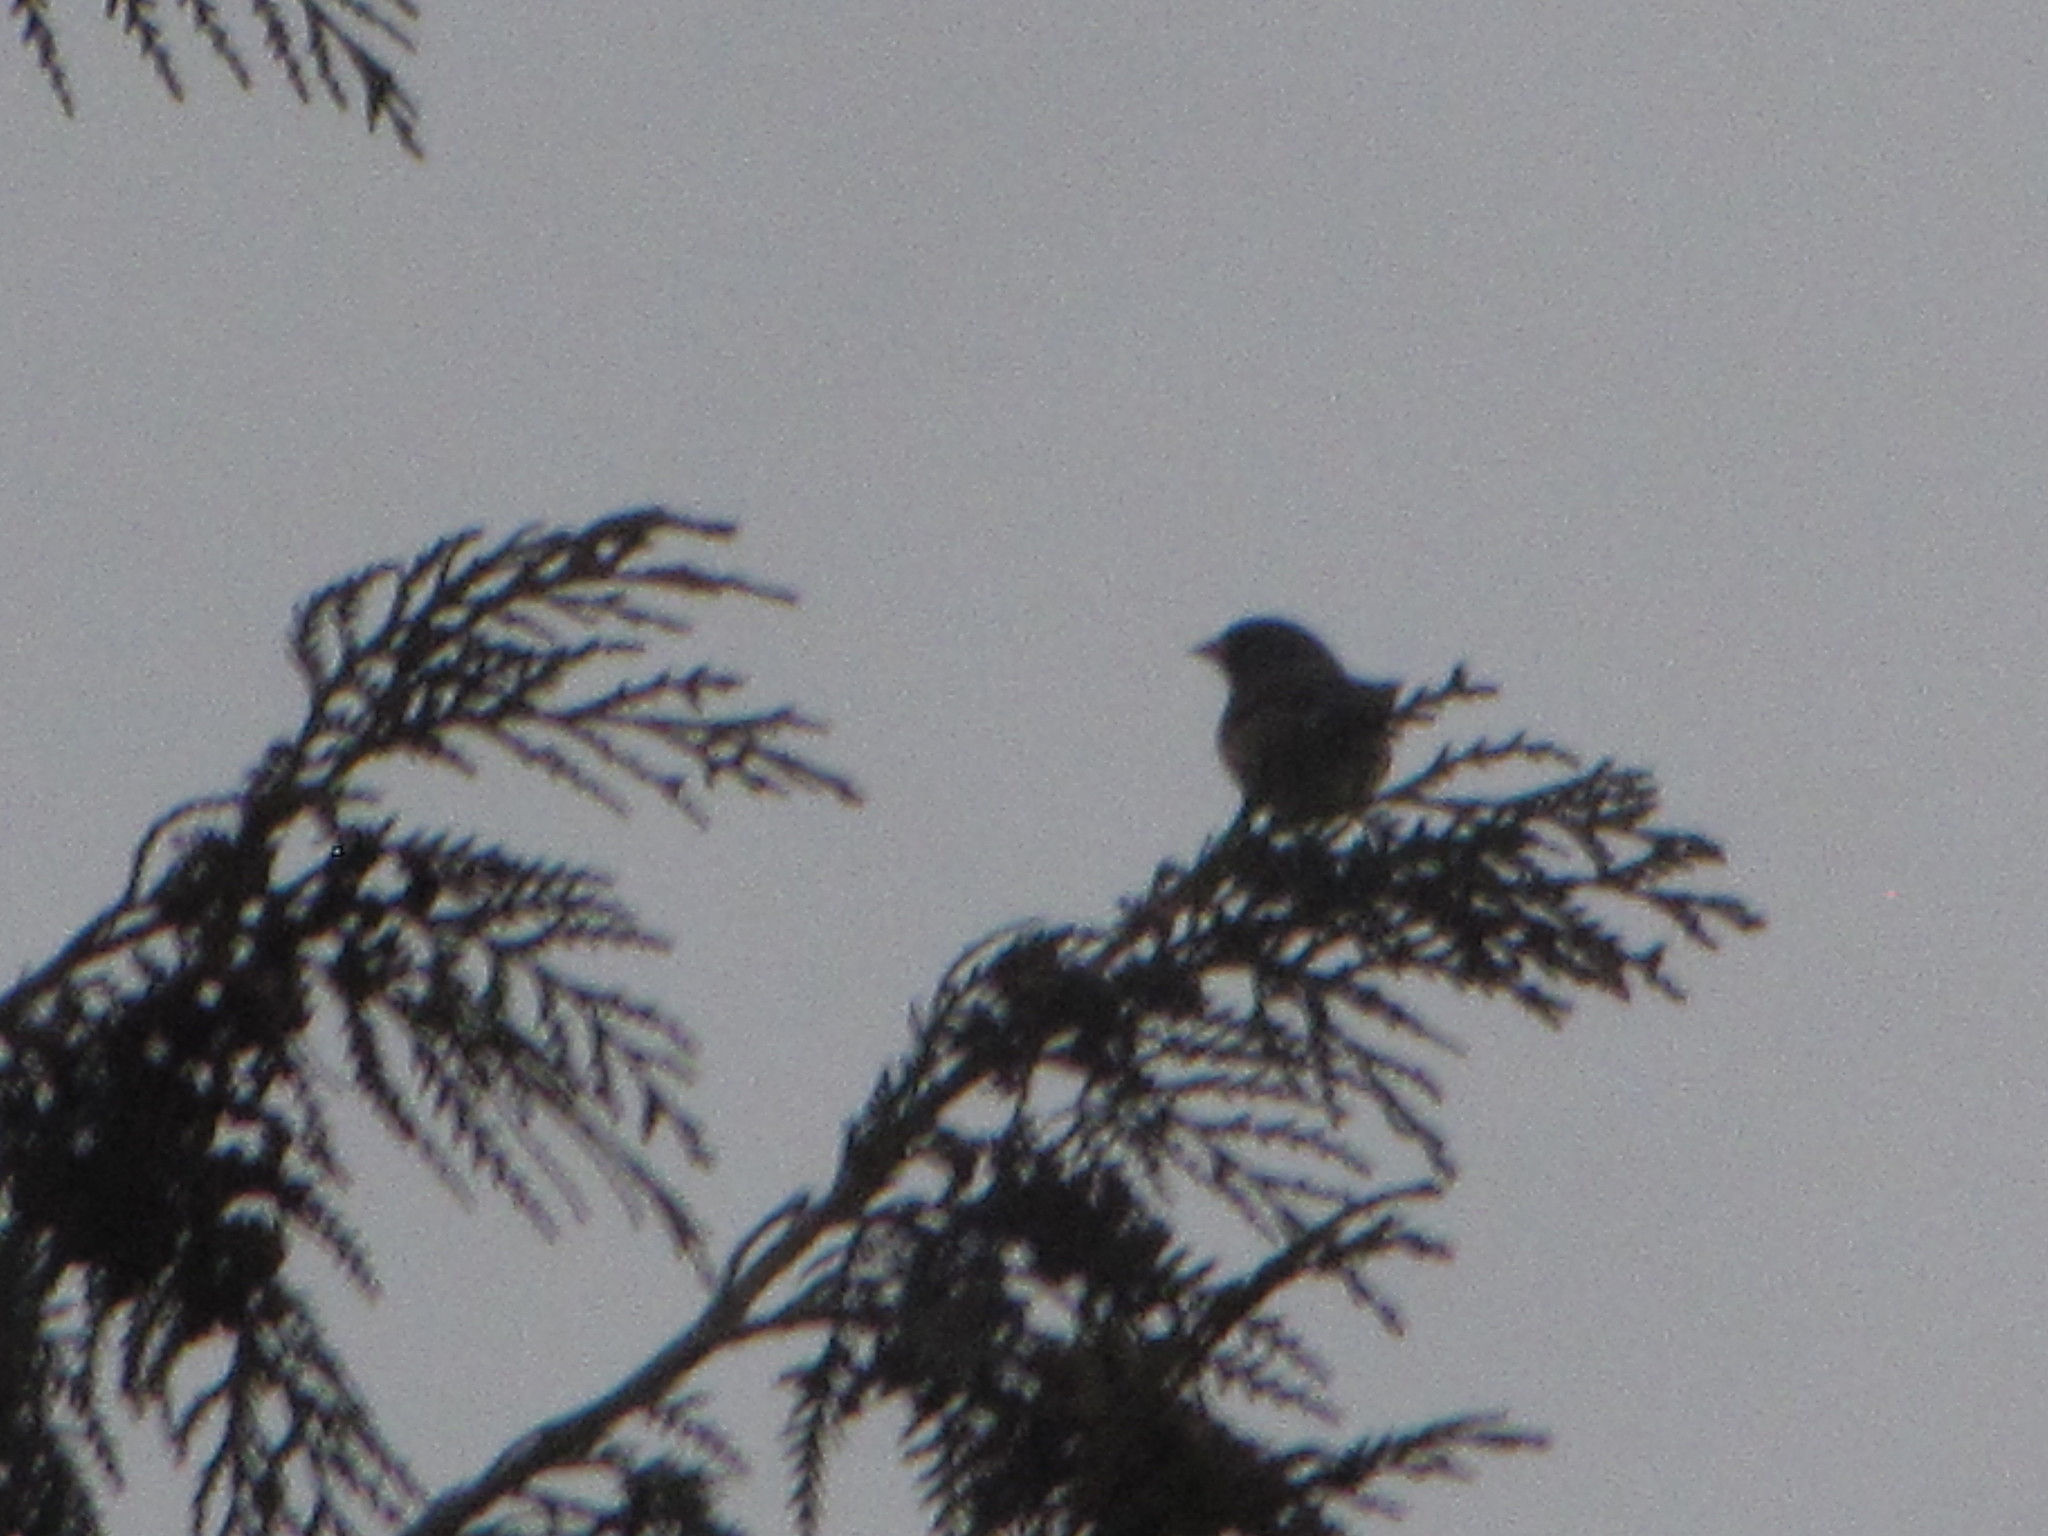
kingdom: Animalia
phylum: Chordata
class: Aves
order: Passeriformes
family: Passerellidae
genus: Junco
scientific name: Junco hyemalis
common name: Dark-eyed junco
